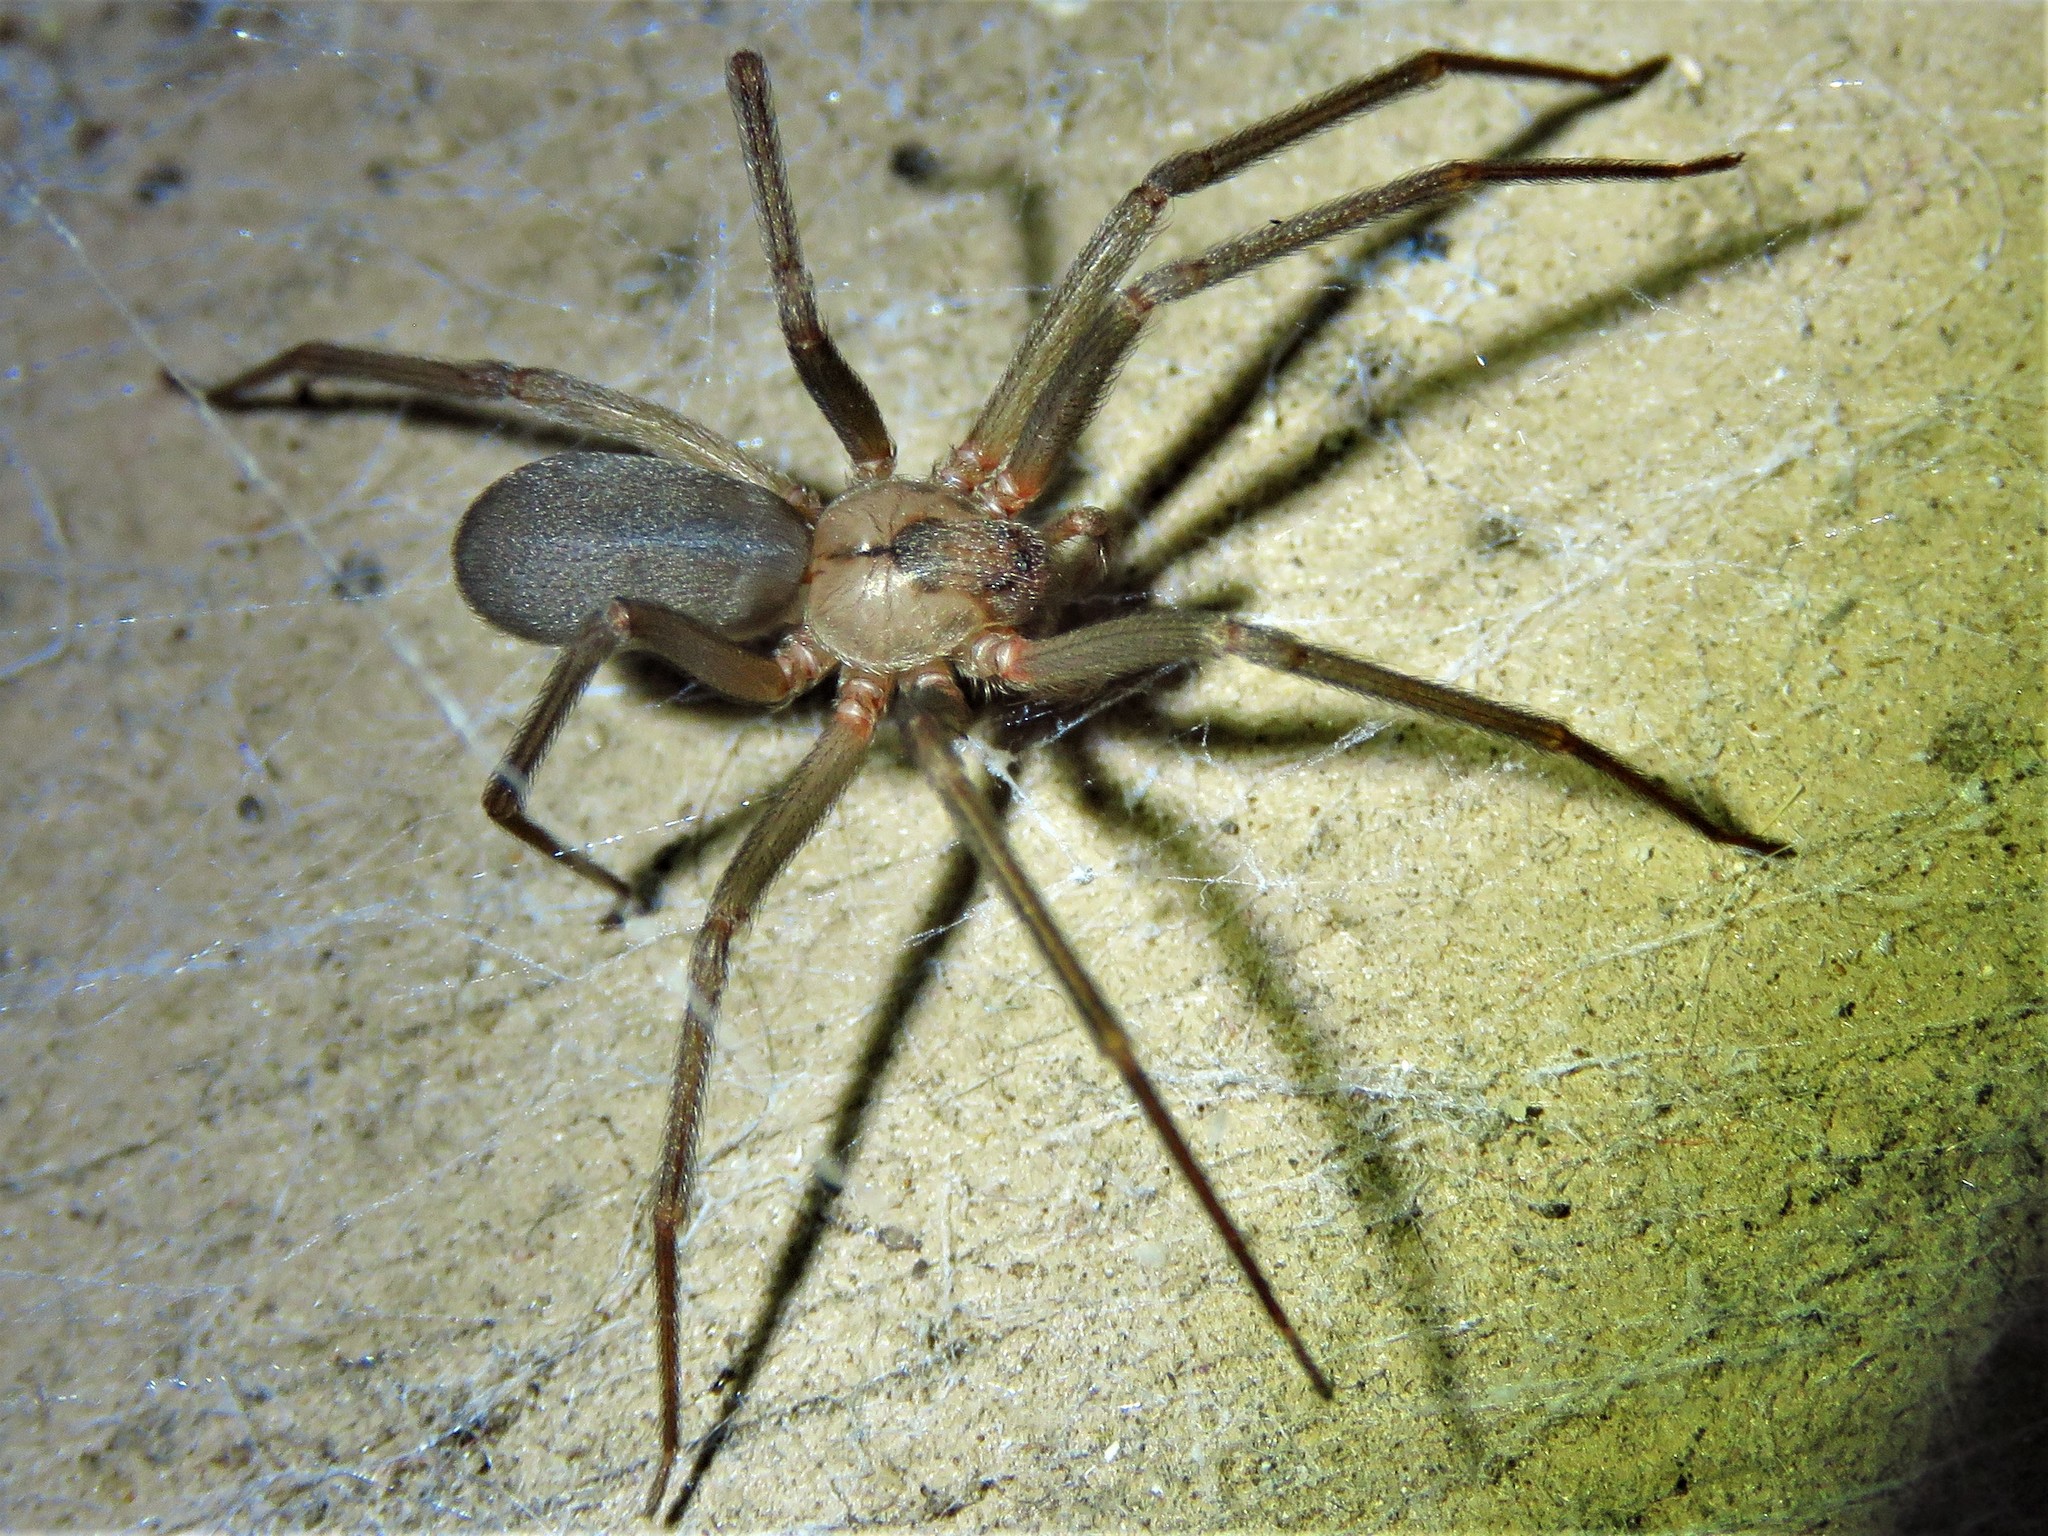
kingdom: Animalia
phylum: Arthropoda
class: Arachnida
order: Araneae
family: Sicariidae
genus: Loxosceles
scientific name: Loxosceles reclusa
